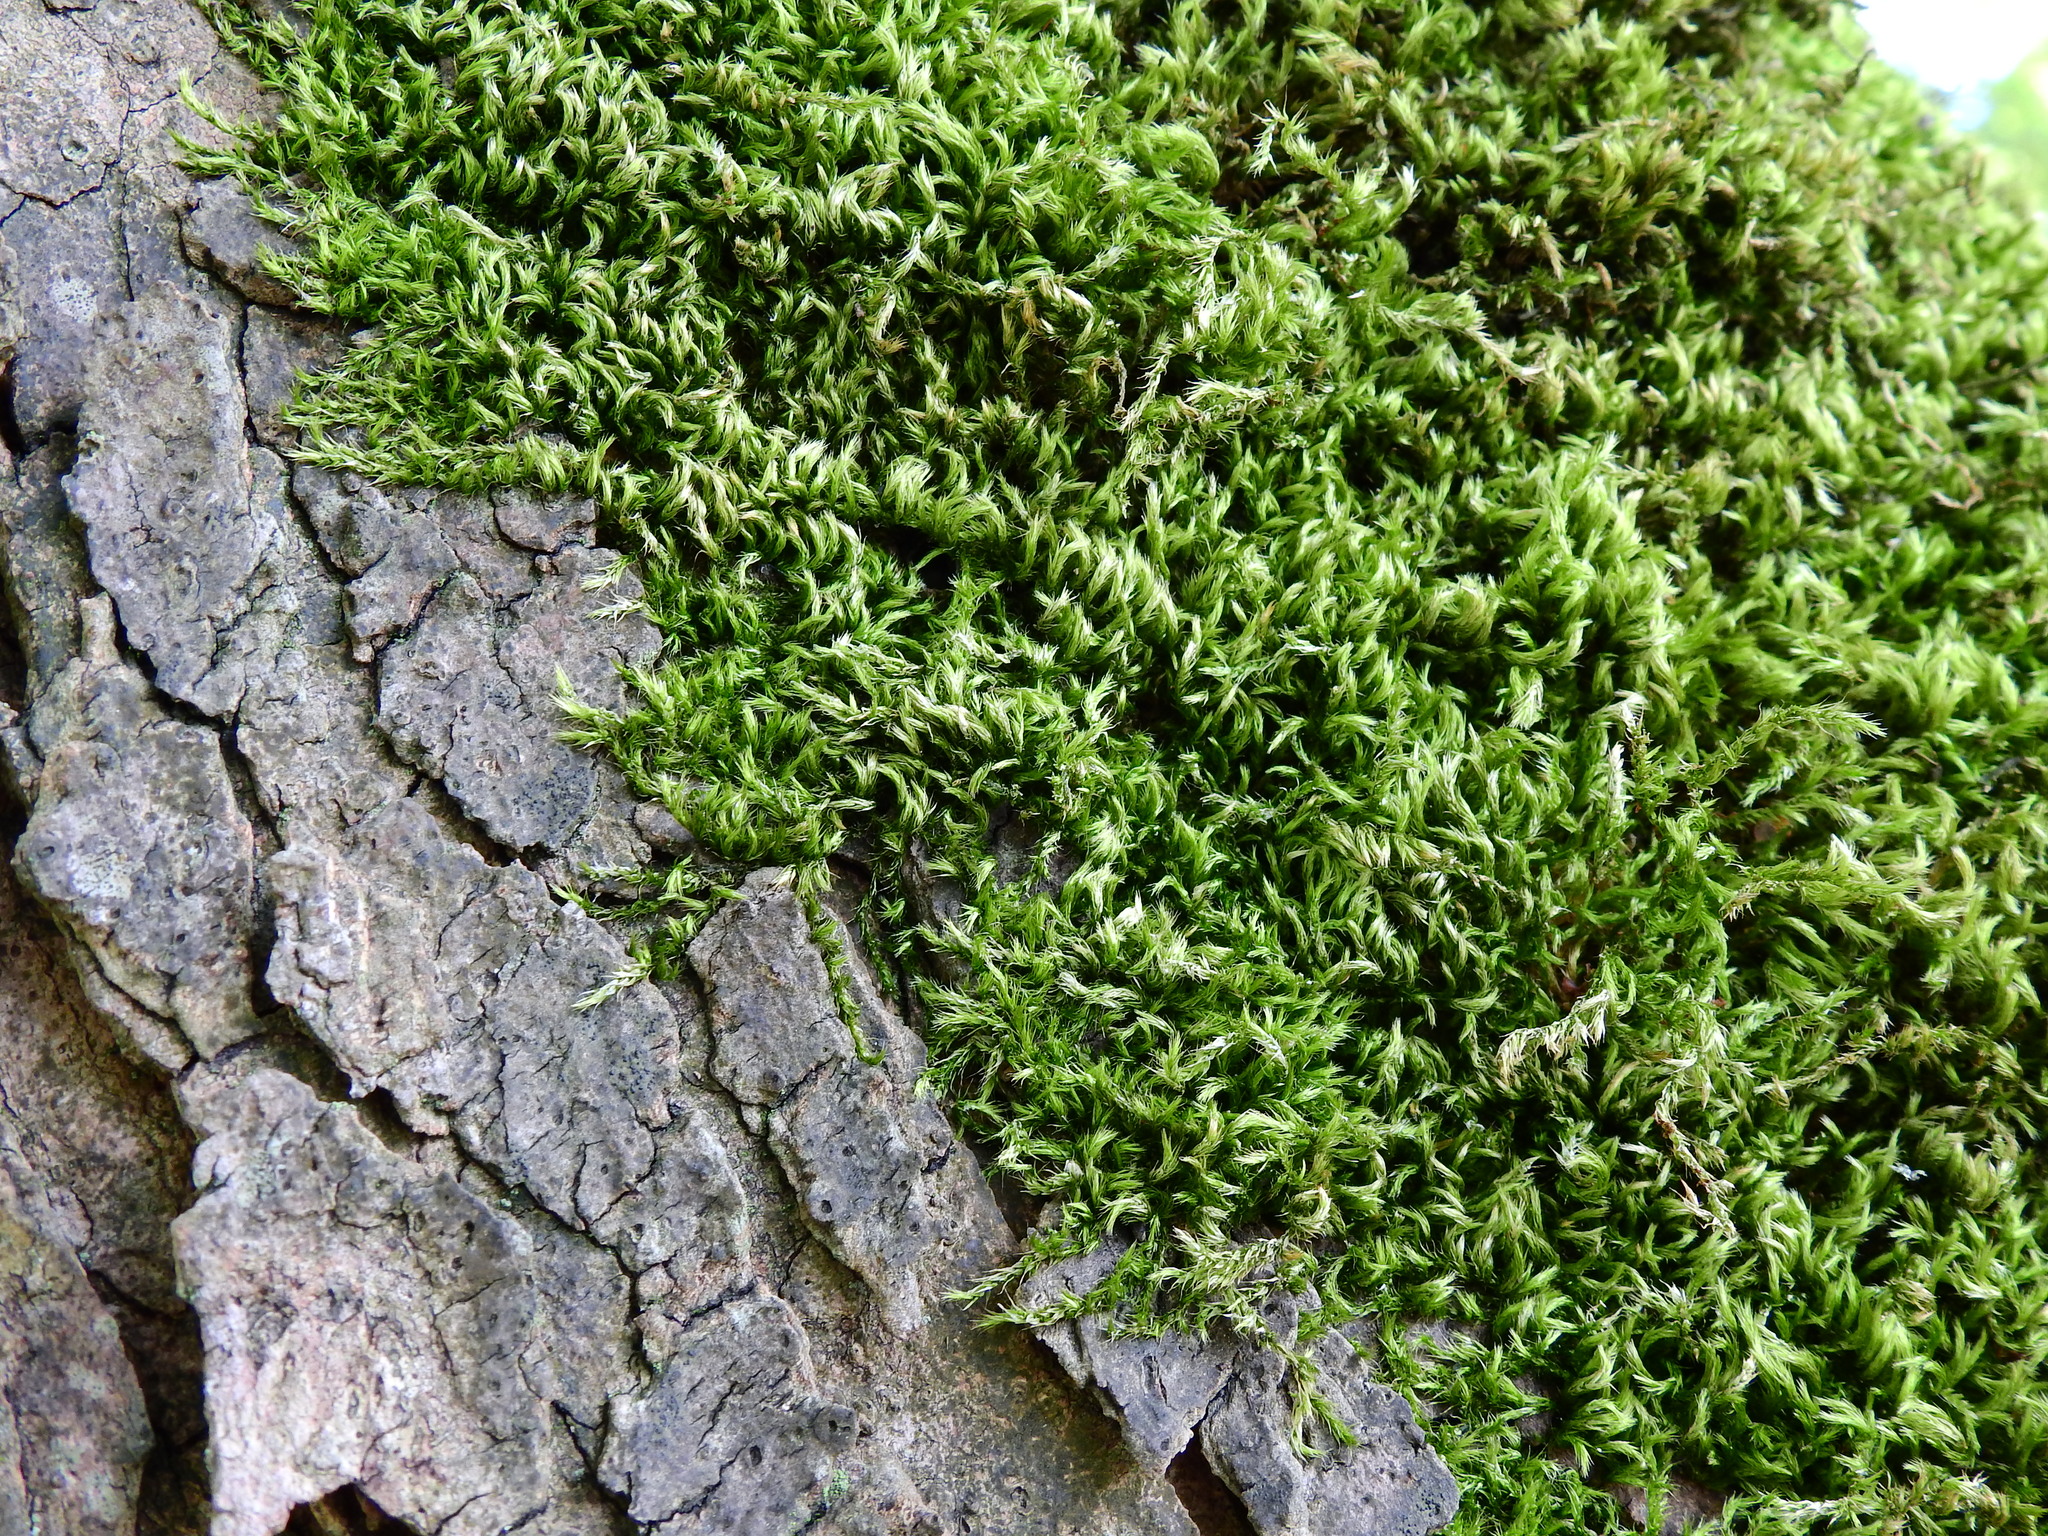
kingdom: Plantae
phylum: Bryophyta
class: Bryopsida
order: Hypnales
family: Brachytheciaceae
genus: Homalothecium
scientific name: Homalothecium sericeum
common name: Silky wall feather-moss
